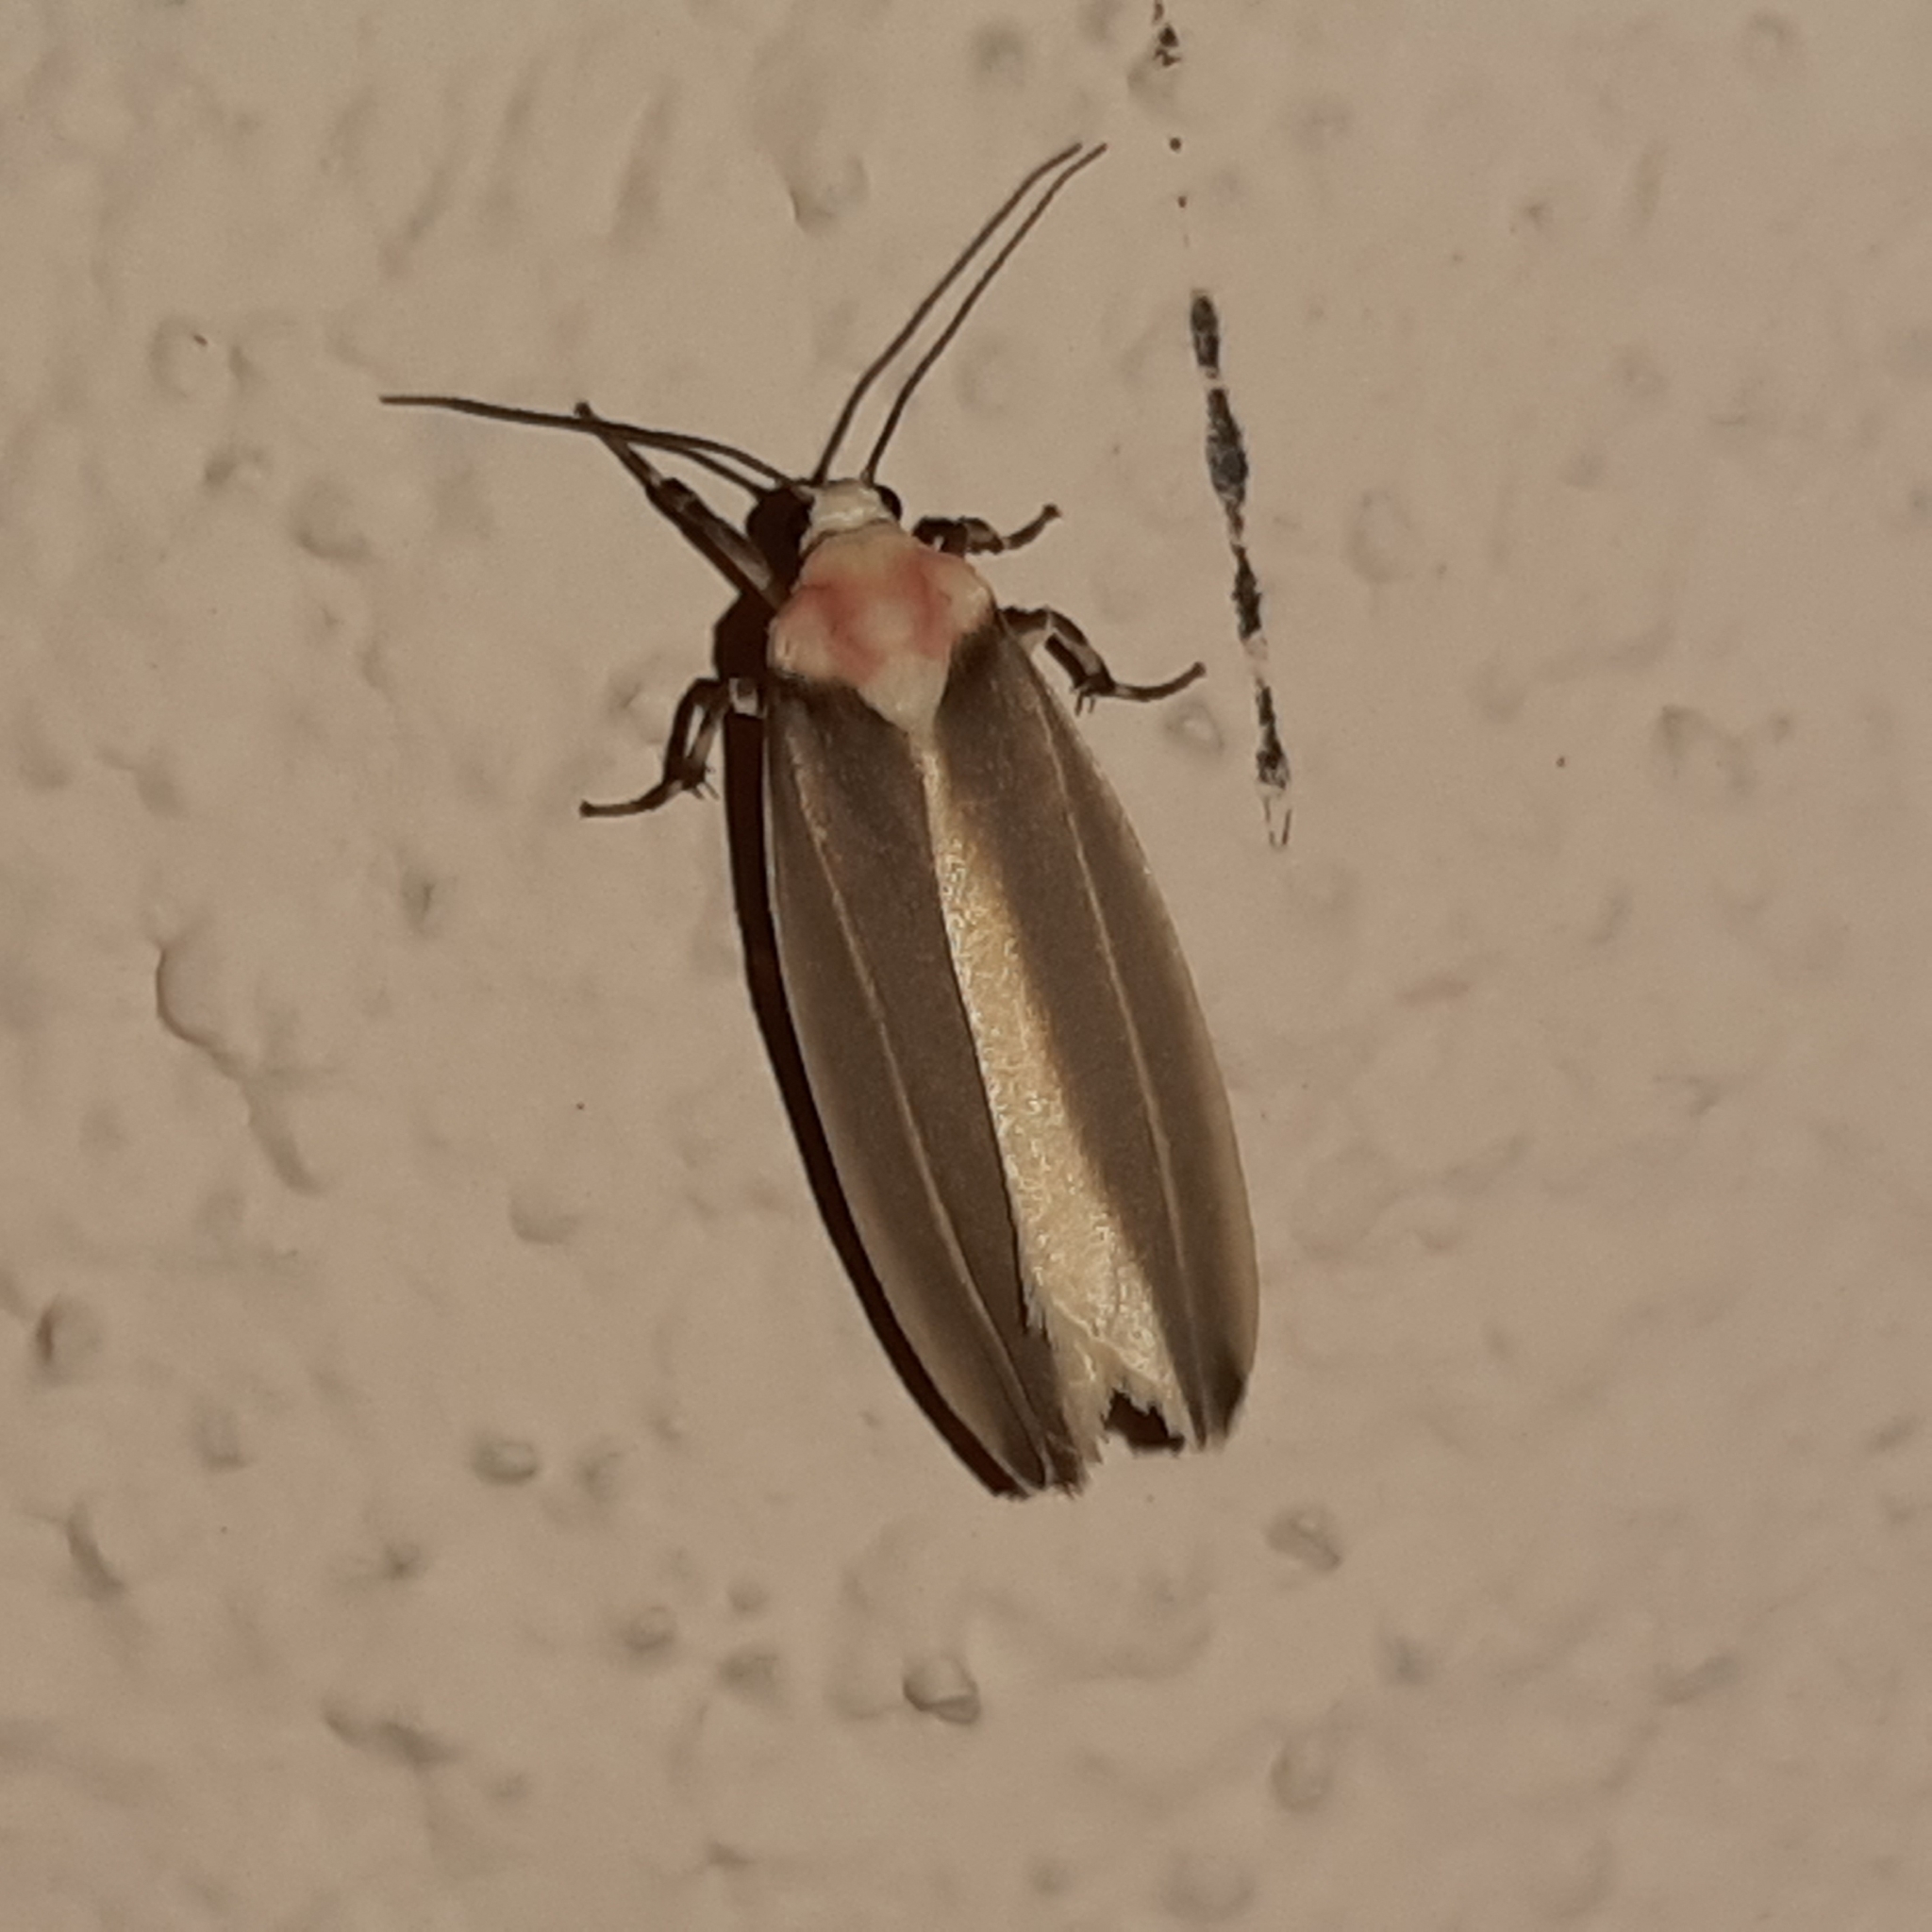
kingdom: Animalia
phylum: Arthropoda
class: Insecta
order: Lepidoptera
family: Erebidae
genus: Rhabdatomis
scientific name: Rhabdatomis laudamia
